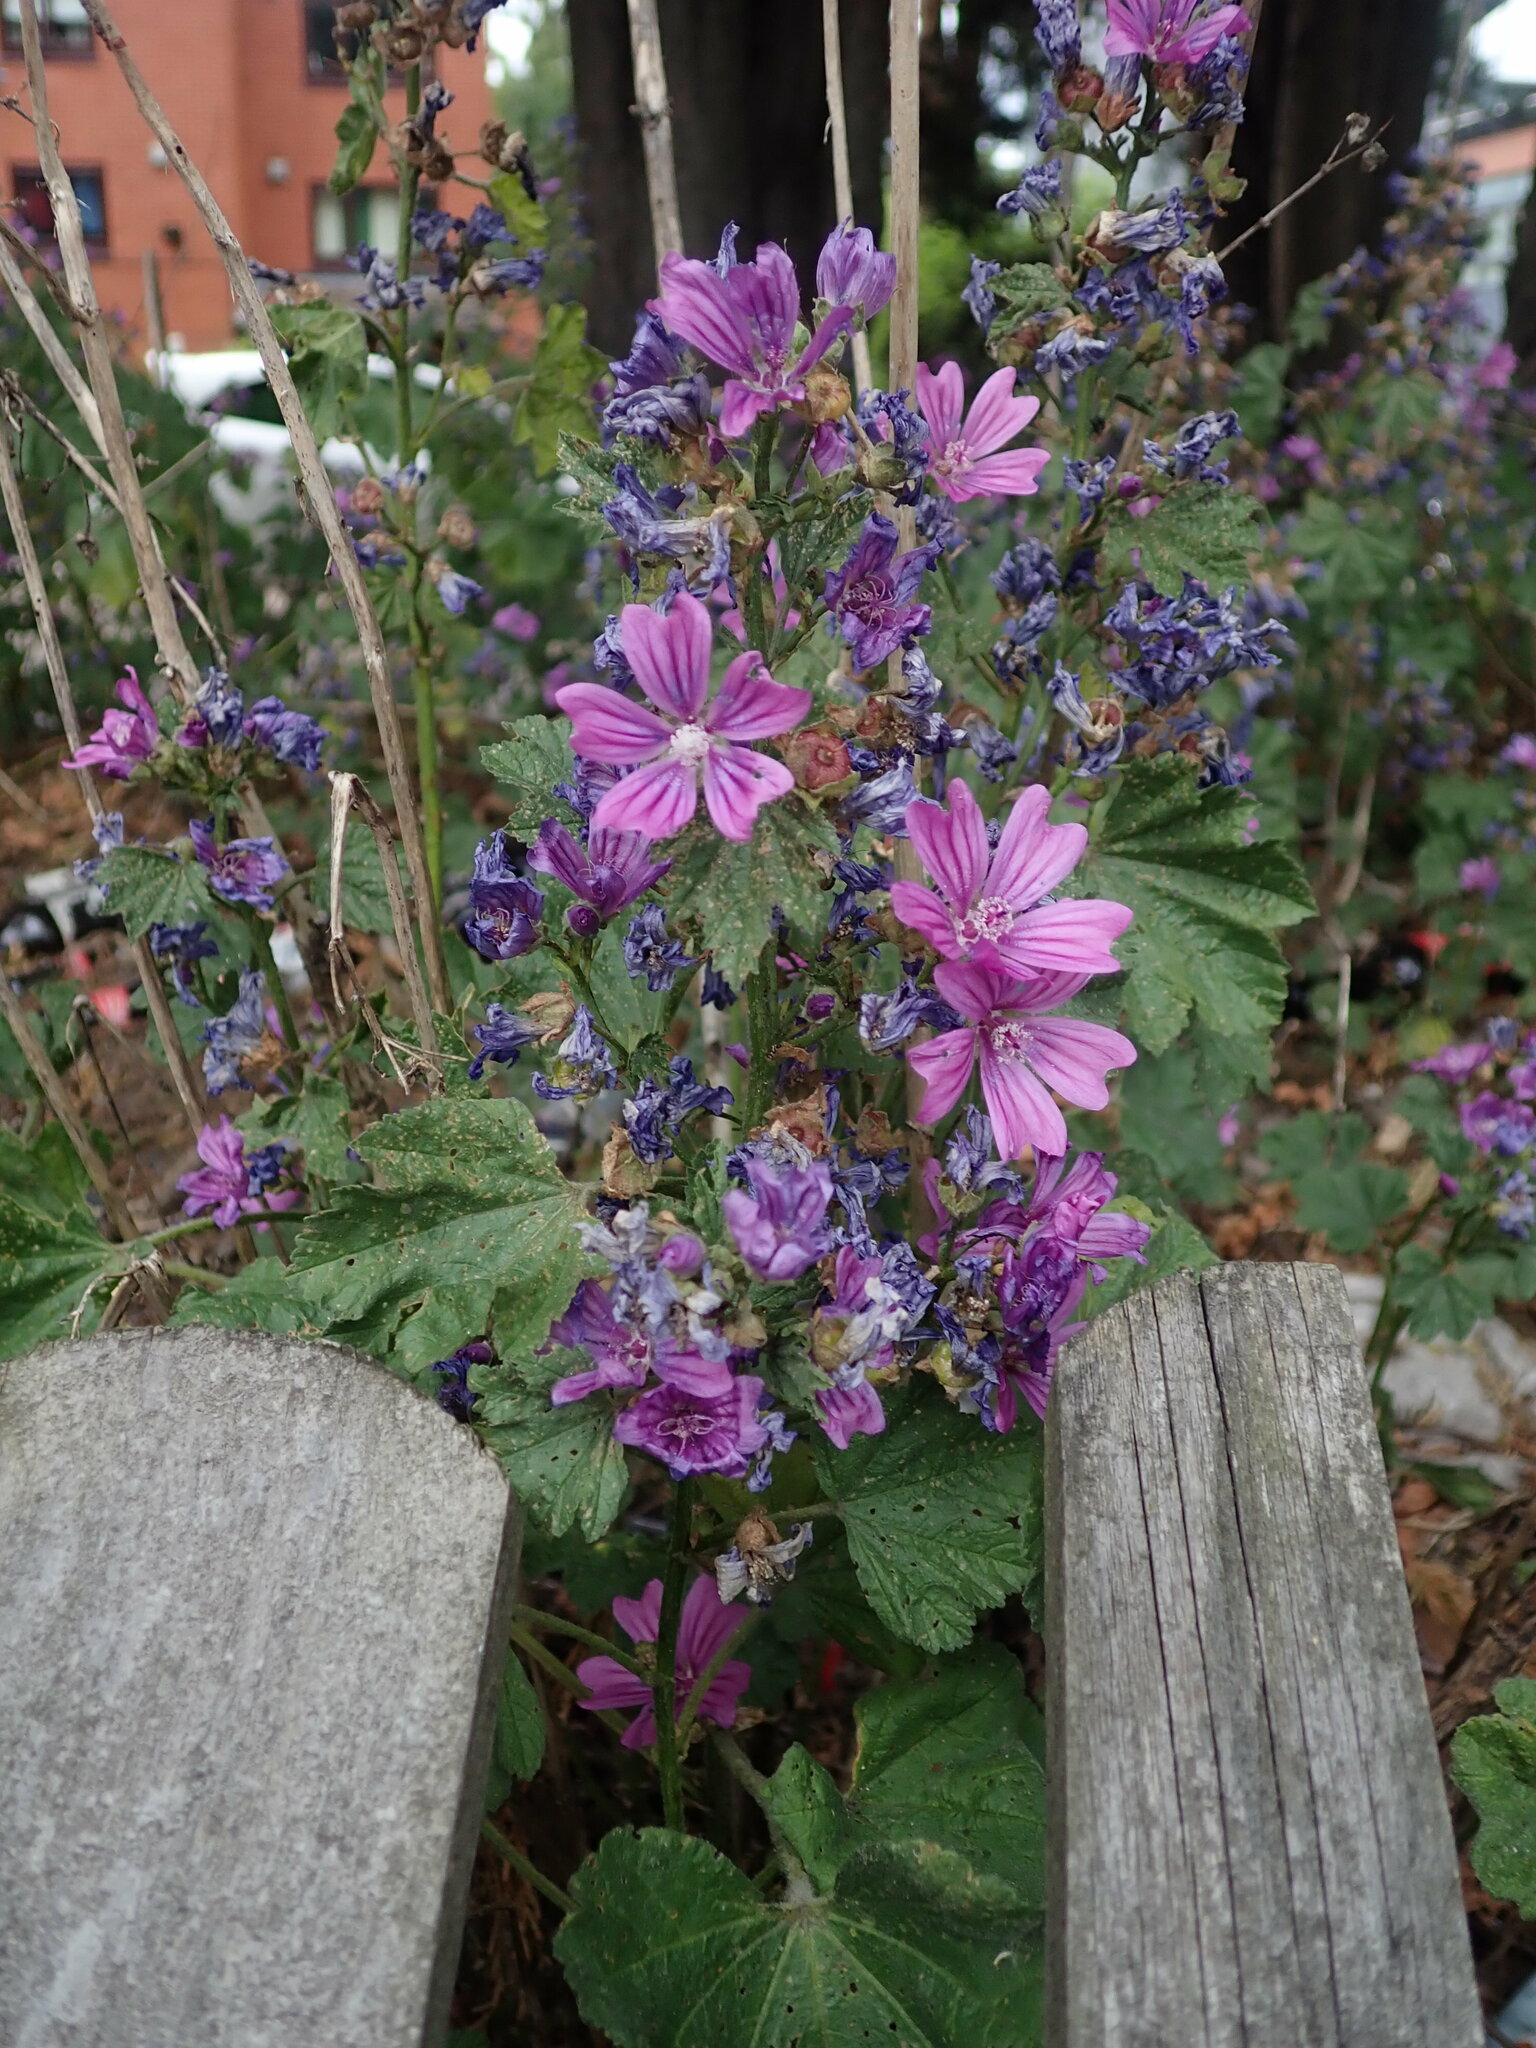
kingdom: Plantae
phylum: Tracheophyta
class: Magnoliopsida
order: Malvales
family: Malvaceae
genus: Malva
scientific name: Malva sylvestris
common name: Common mallow
